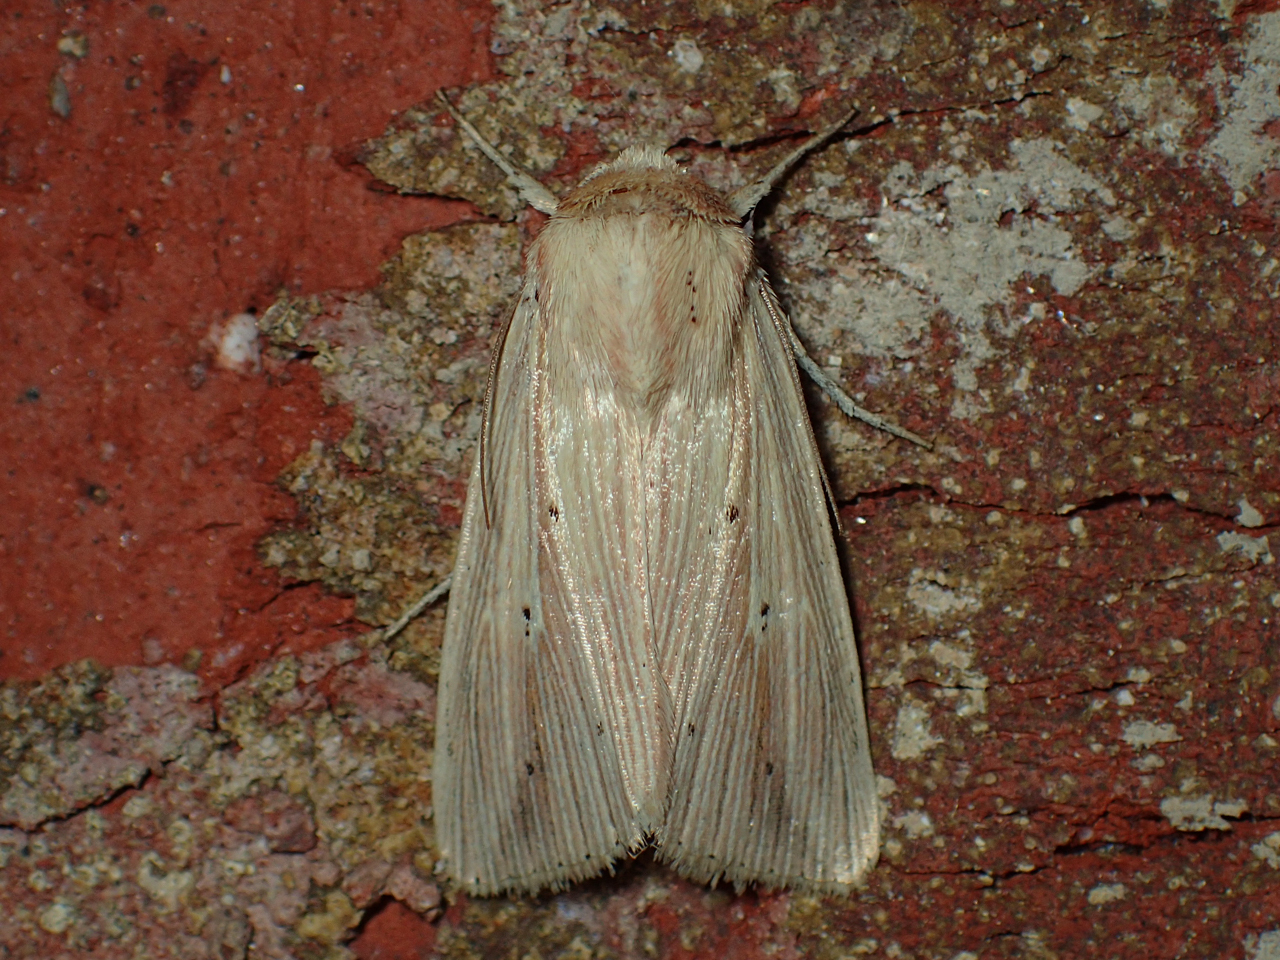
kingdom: Animalia
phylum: Arthropoda
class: Insecta
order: Lepidoptera
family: Noctuidae
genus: Leucania
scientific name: Leucania adjuta
